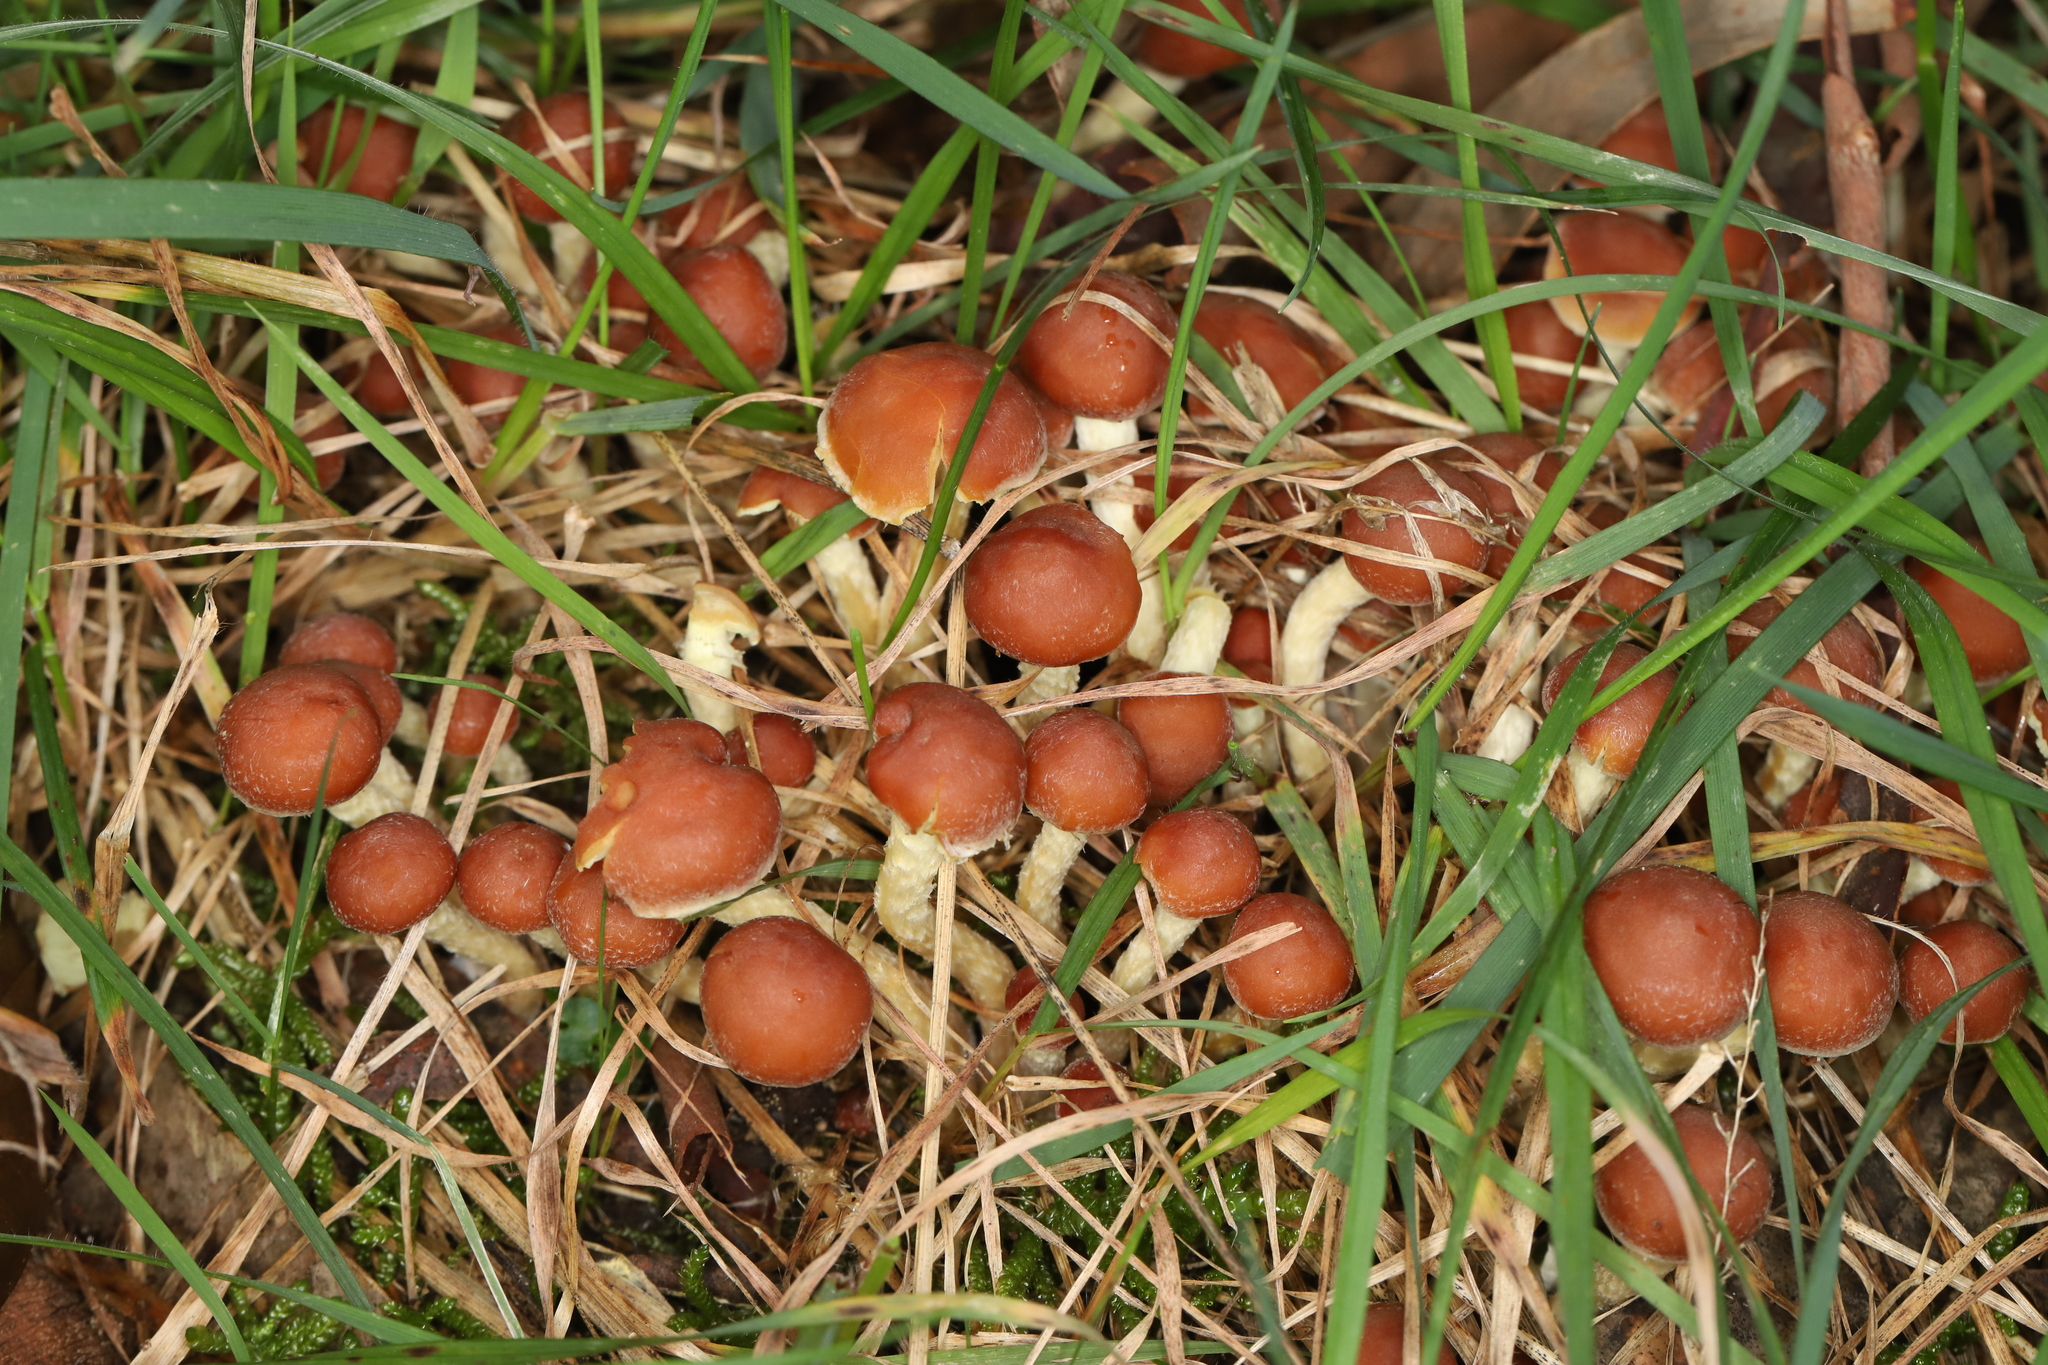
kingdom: Fungi
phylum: Basidiomycota
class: Agaricomycetes
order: Agaricales
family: Strophariaceae
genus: Hypholoma
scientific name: Hypholoma australianum
